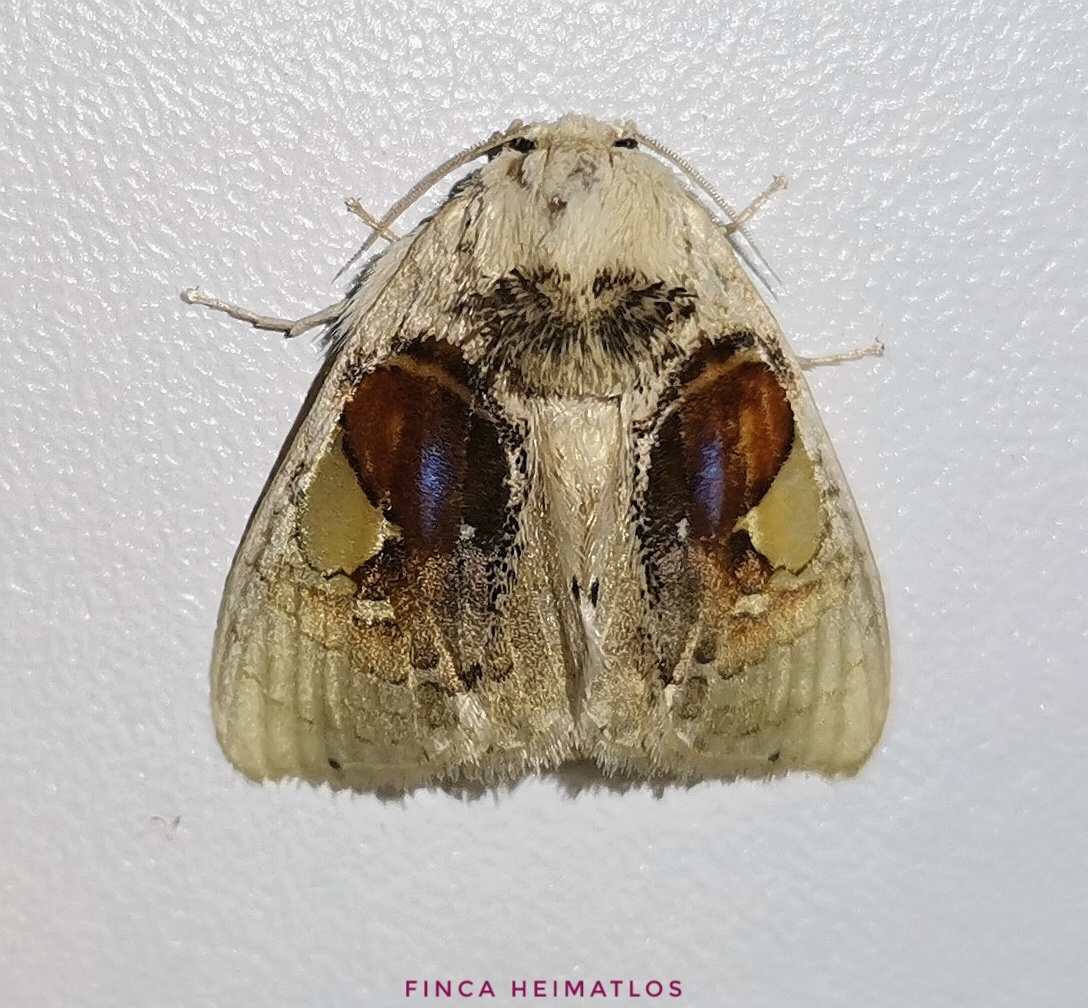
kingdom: Animalia
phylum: Arthropoda
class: Insecta
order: Lepidoptera
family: Psychidae
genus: Arrhenophanes
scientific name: Arrhenophanes perspicilla
